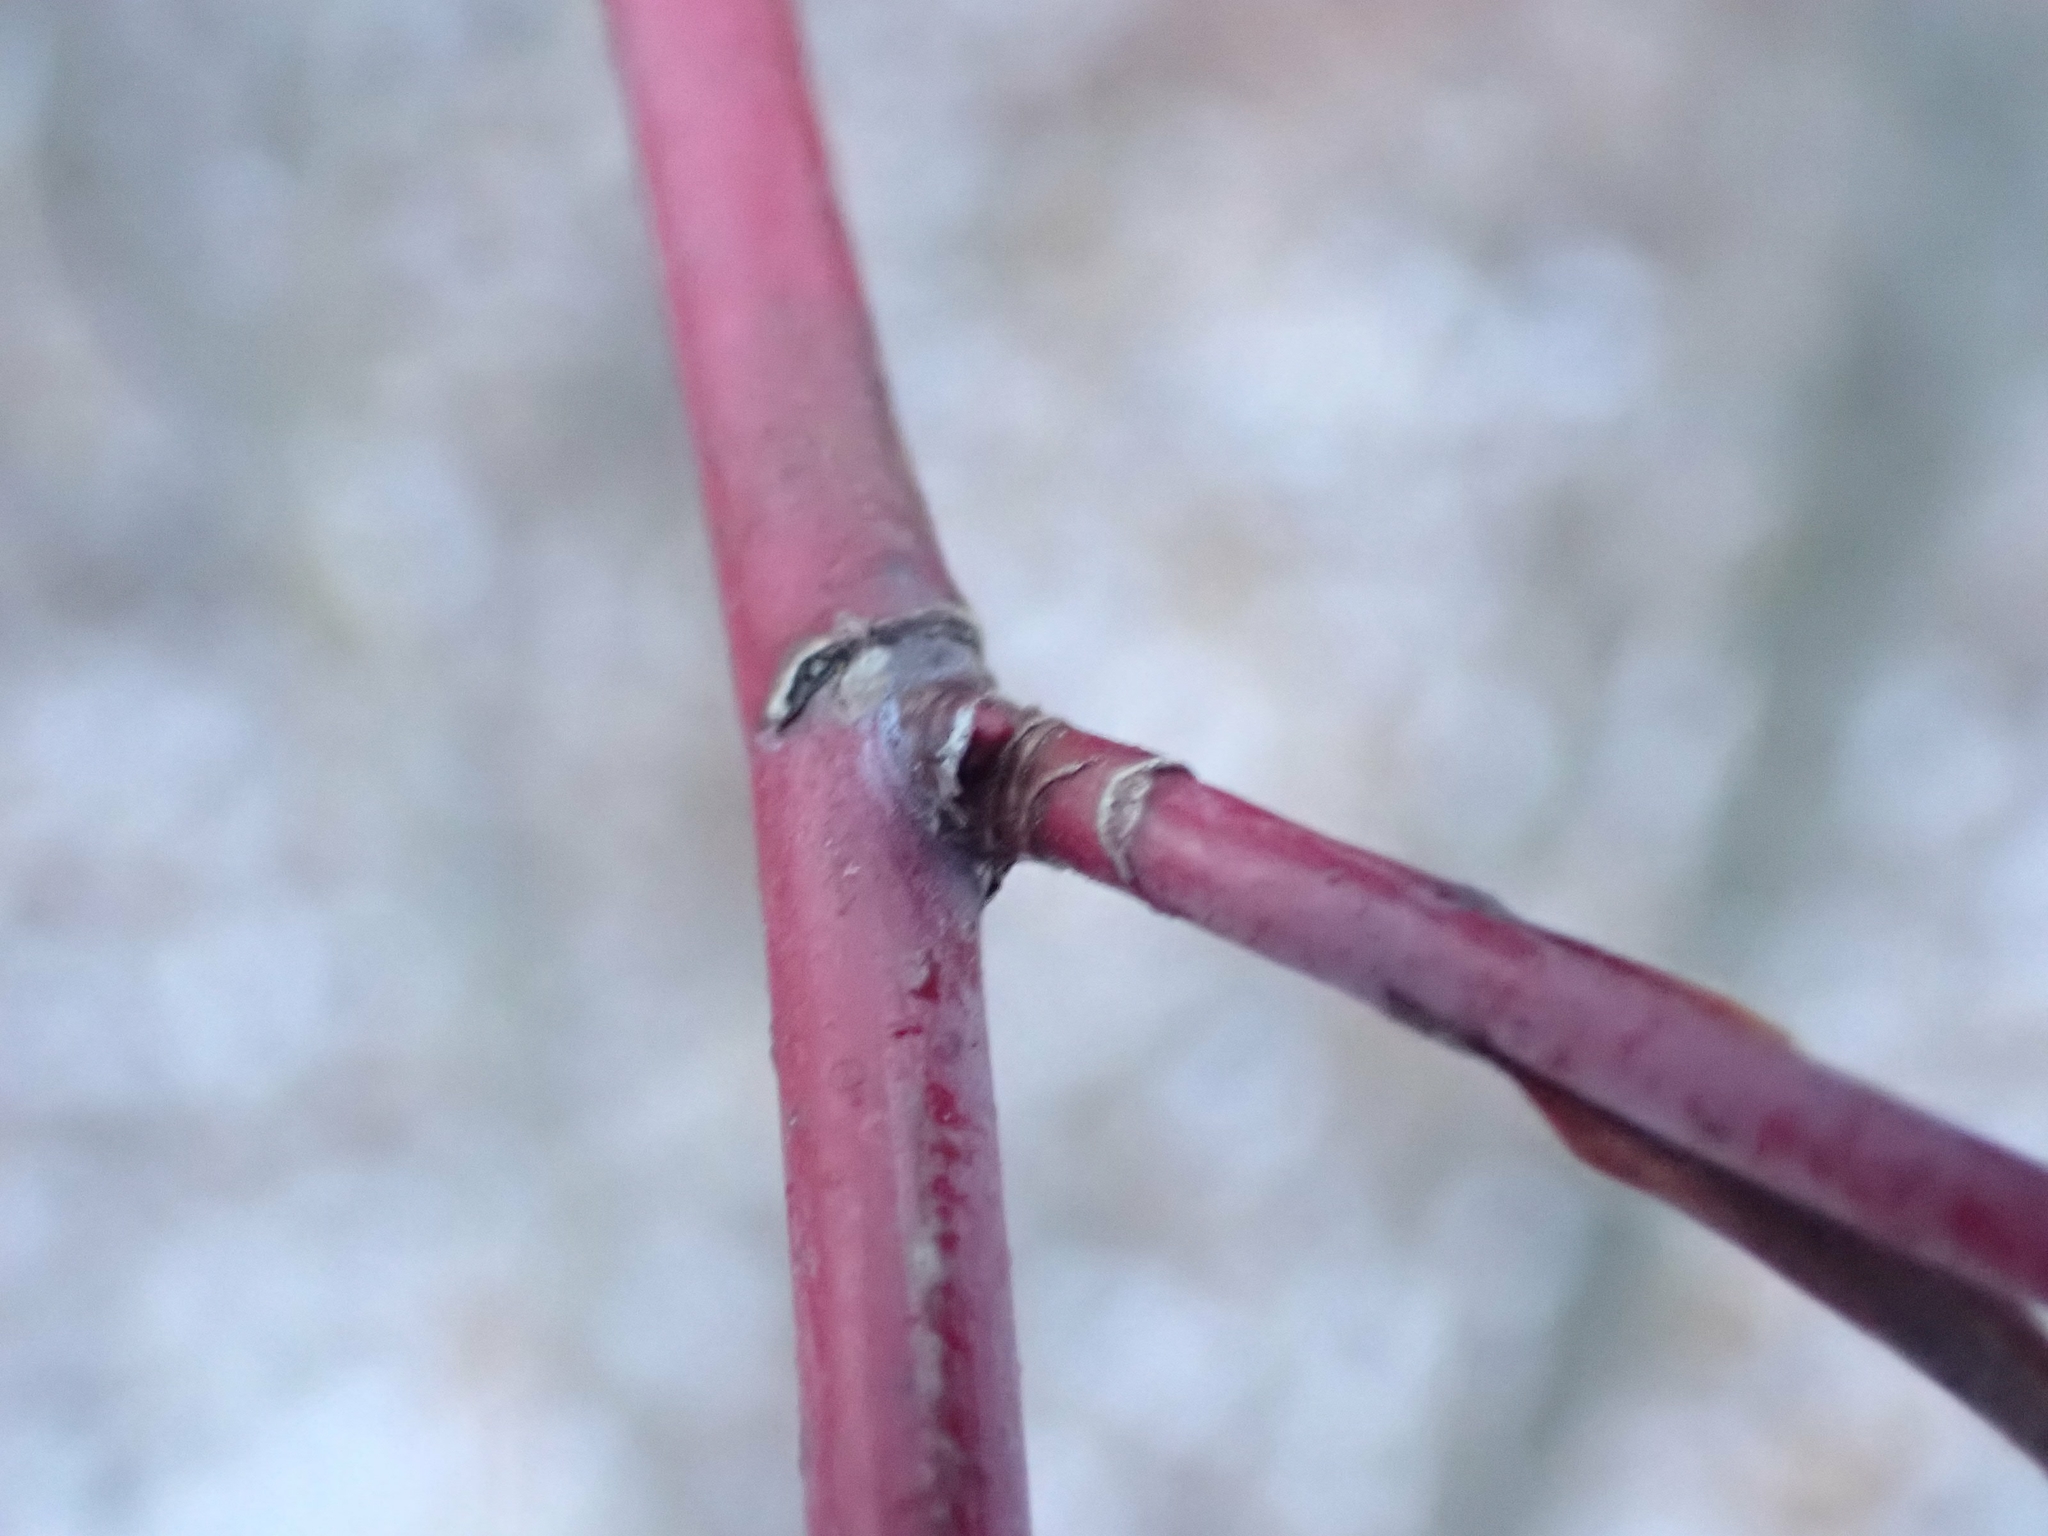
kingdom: Plantae
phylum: Tracheophyta
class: Magnoliopsida
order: Rosales
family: Rosaceae
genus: Rosa
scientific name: Rosa blanda
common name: Smooth rose
